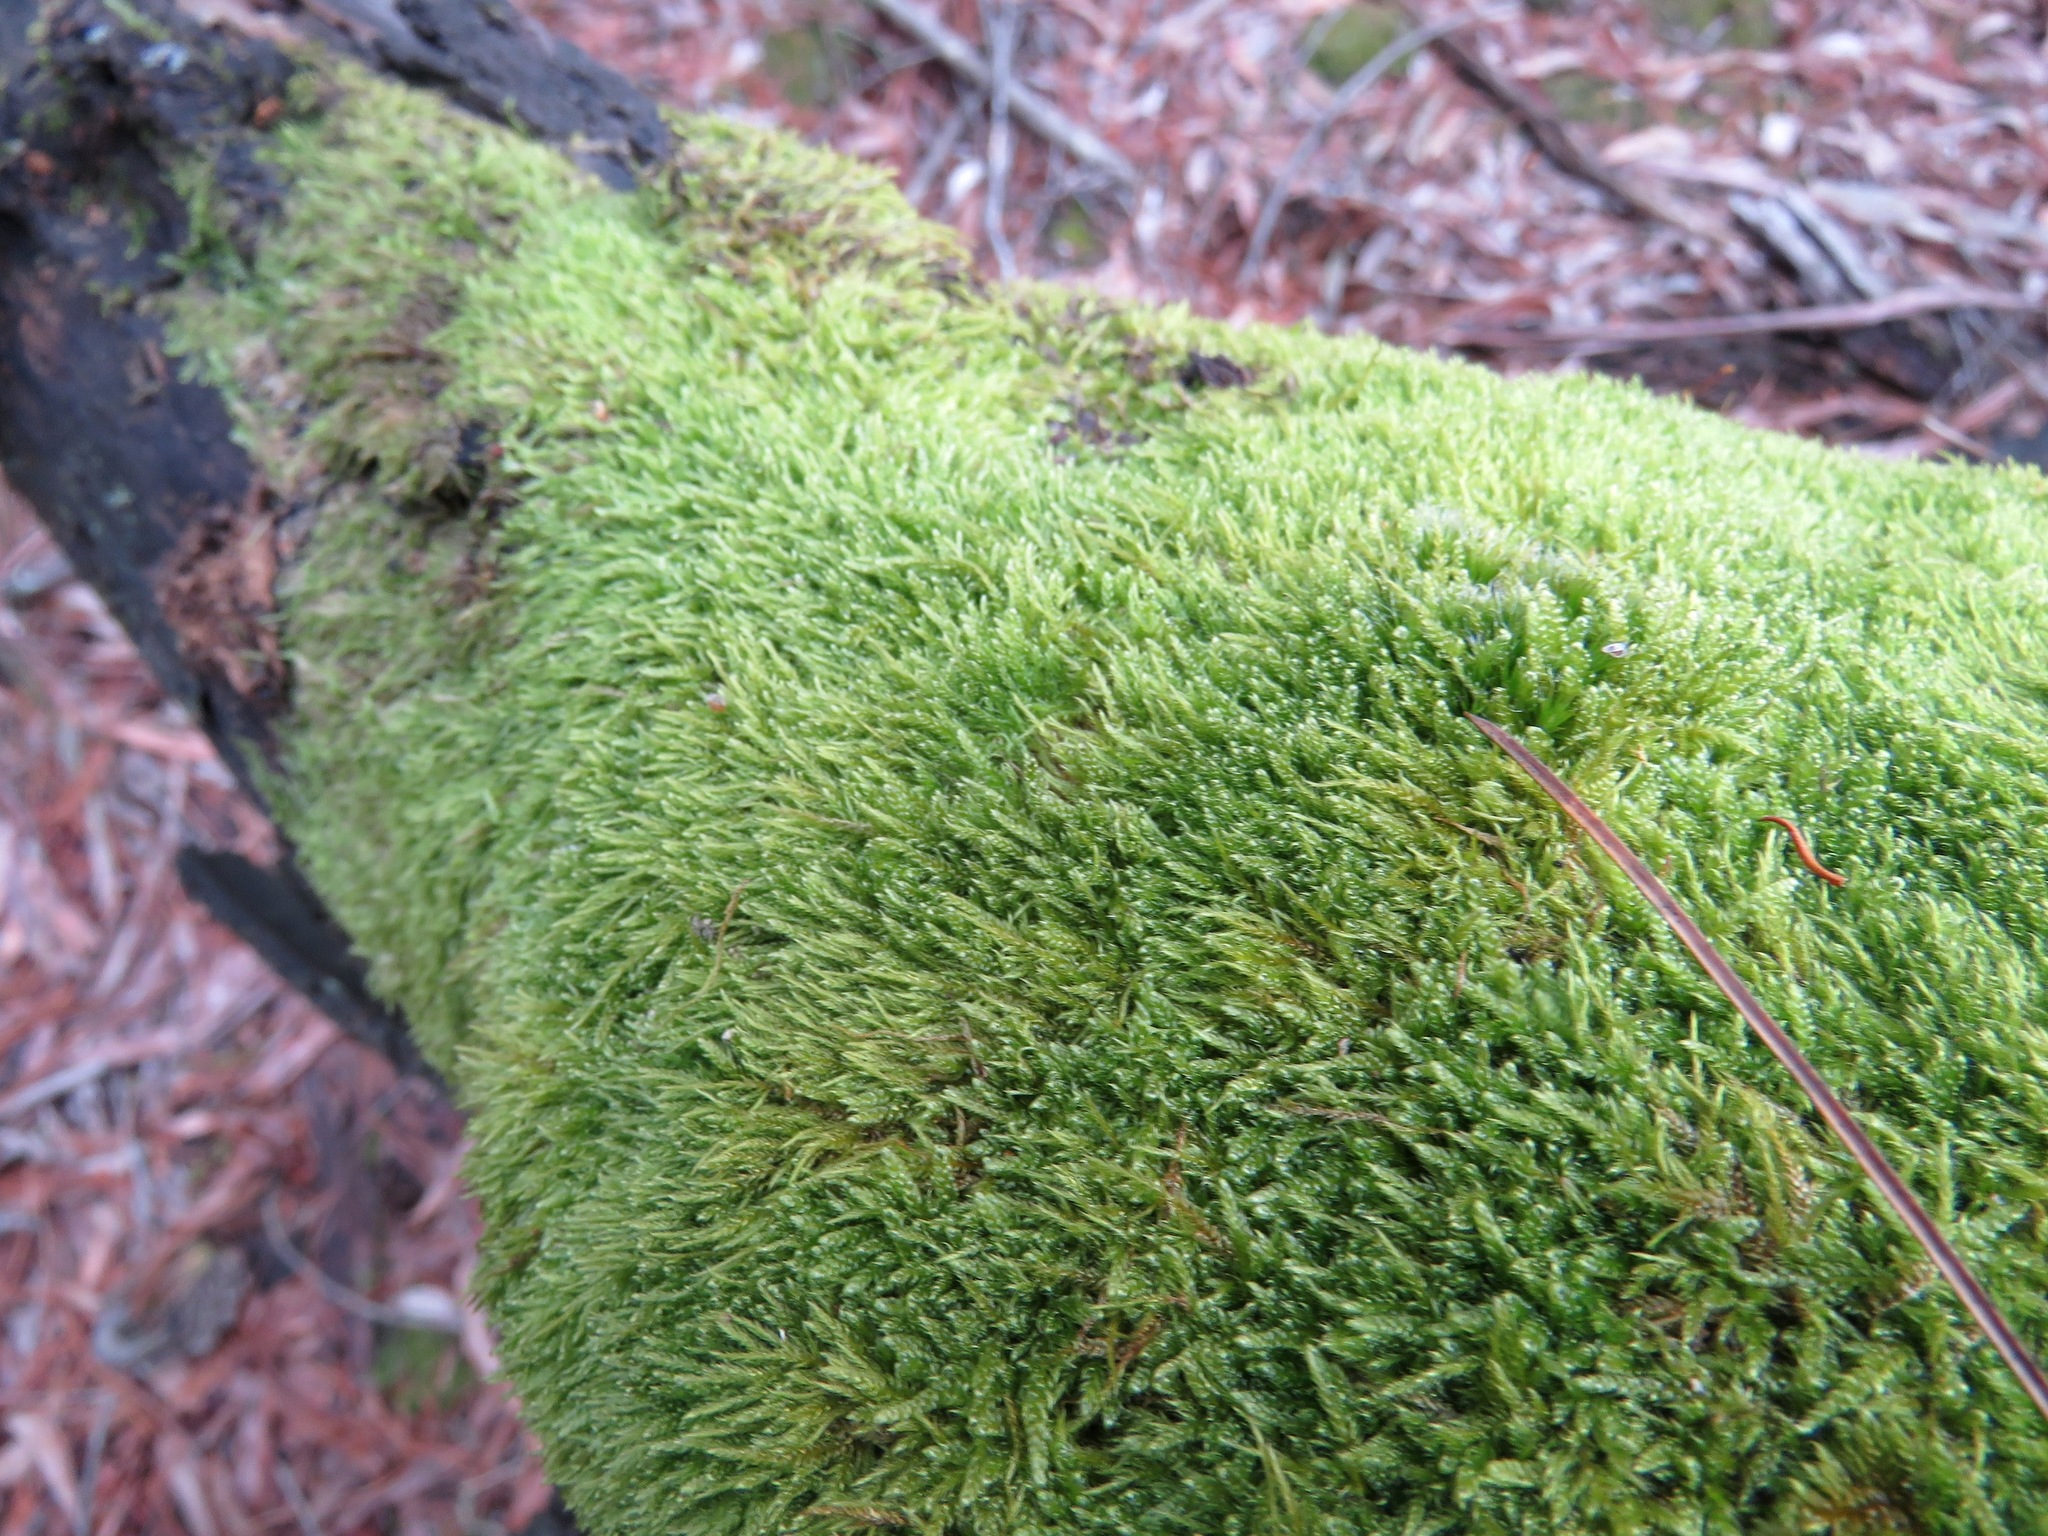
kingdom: Plantae
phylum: Bryophyta
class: Bryopsida
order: Hypnales
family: Hypnaceae
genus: Hypnum
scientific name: Hypnum cupressiforme
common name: Cypress-leaved plait-moss
